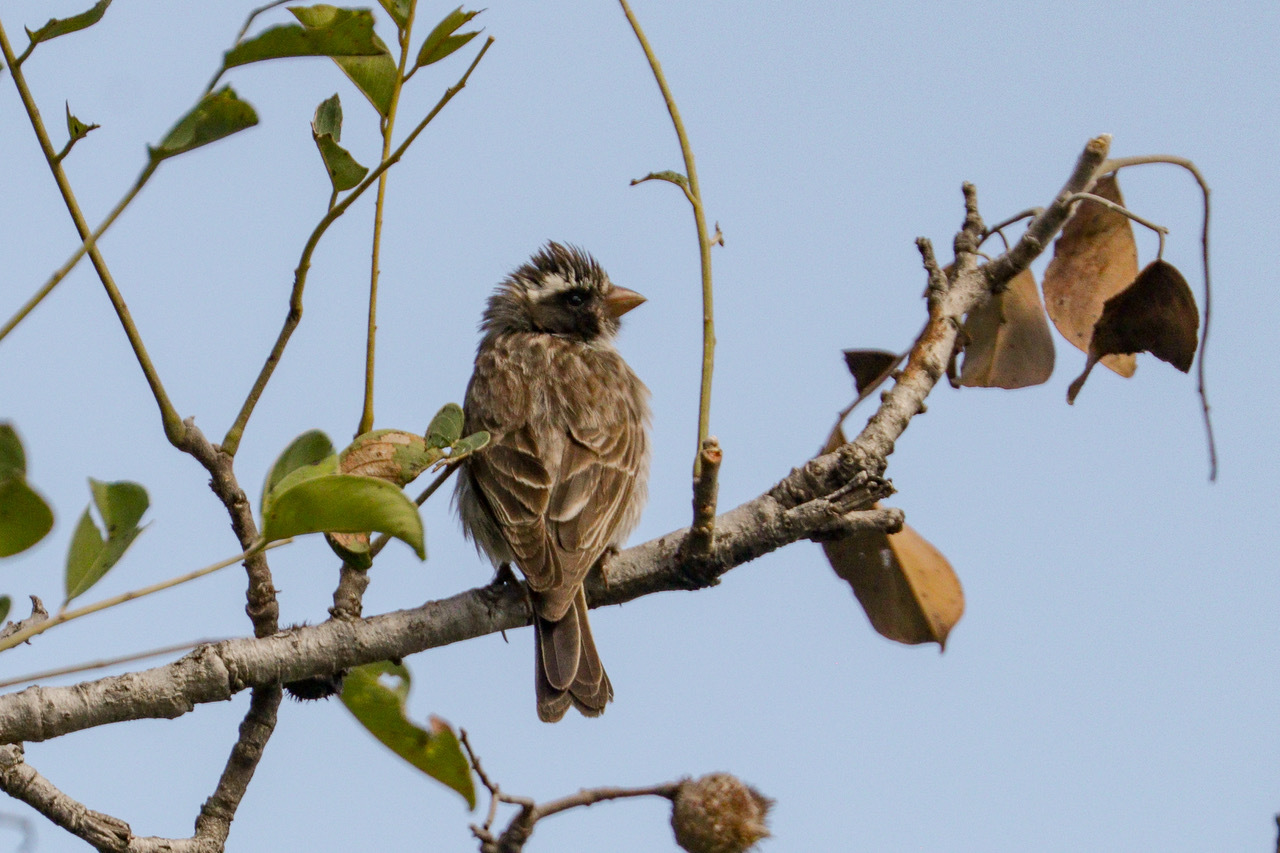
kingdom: Animalia
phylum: Chordata
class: Aves
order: Passeriformes
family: Fringillidae
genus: Crithagra
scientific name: Crithagra mennelli
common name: Black-eared seedeater
